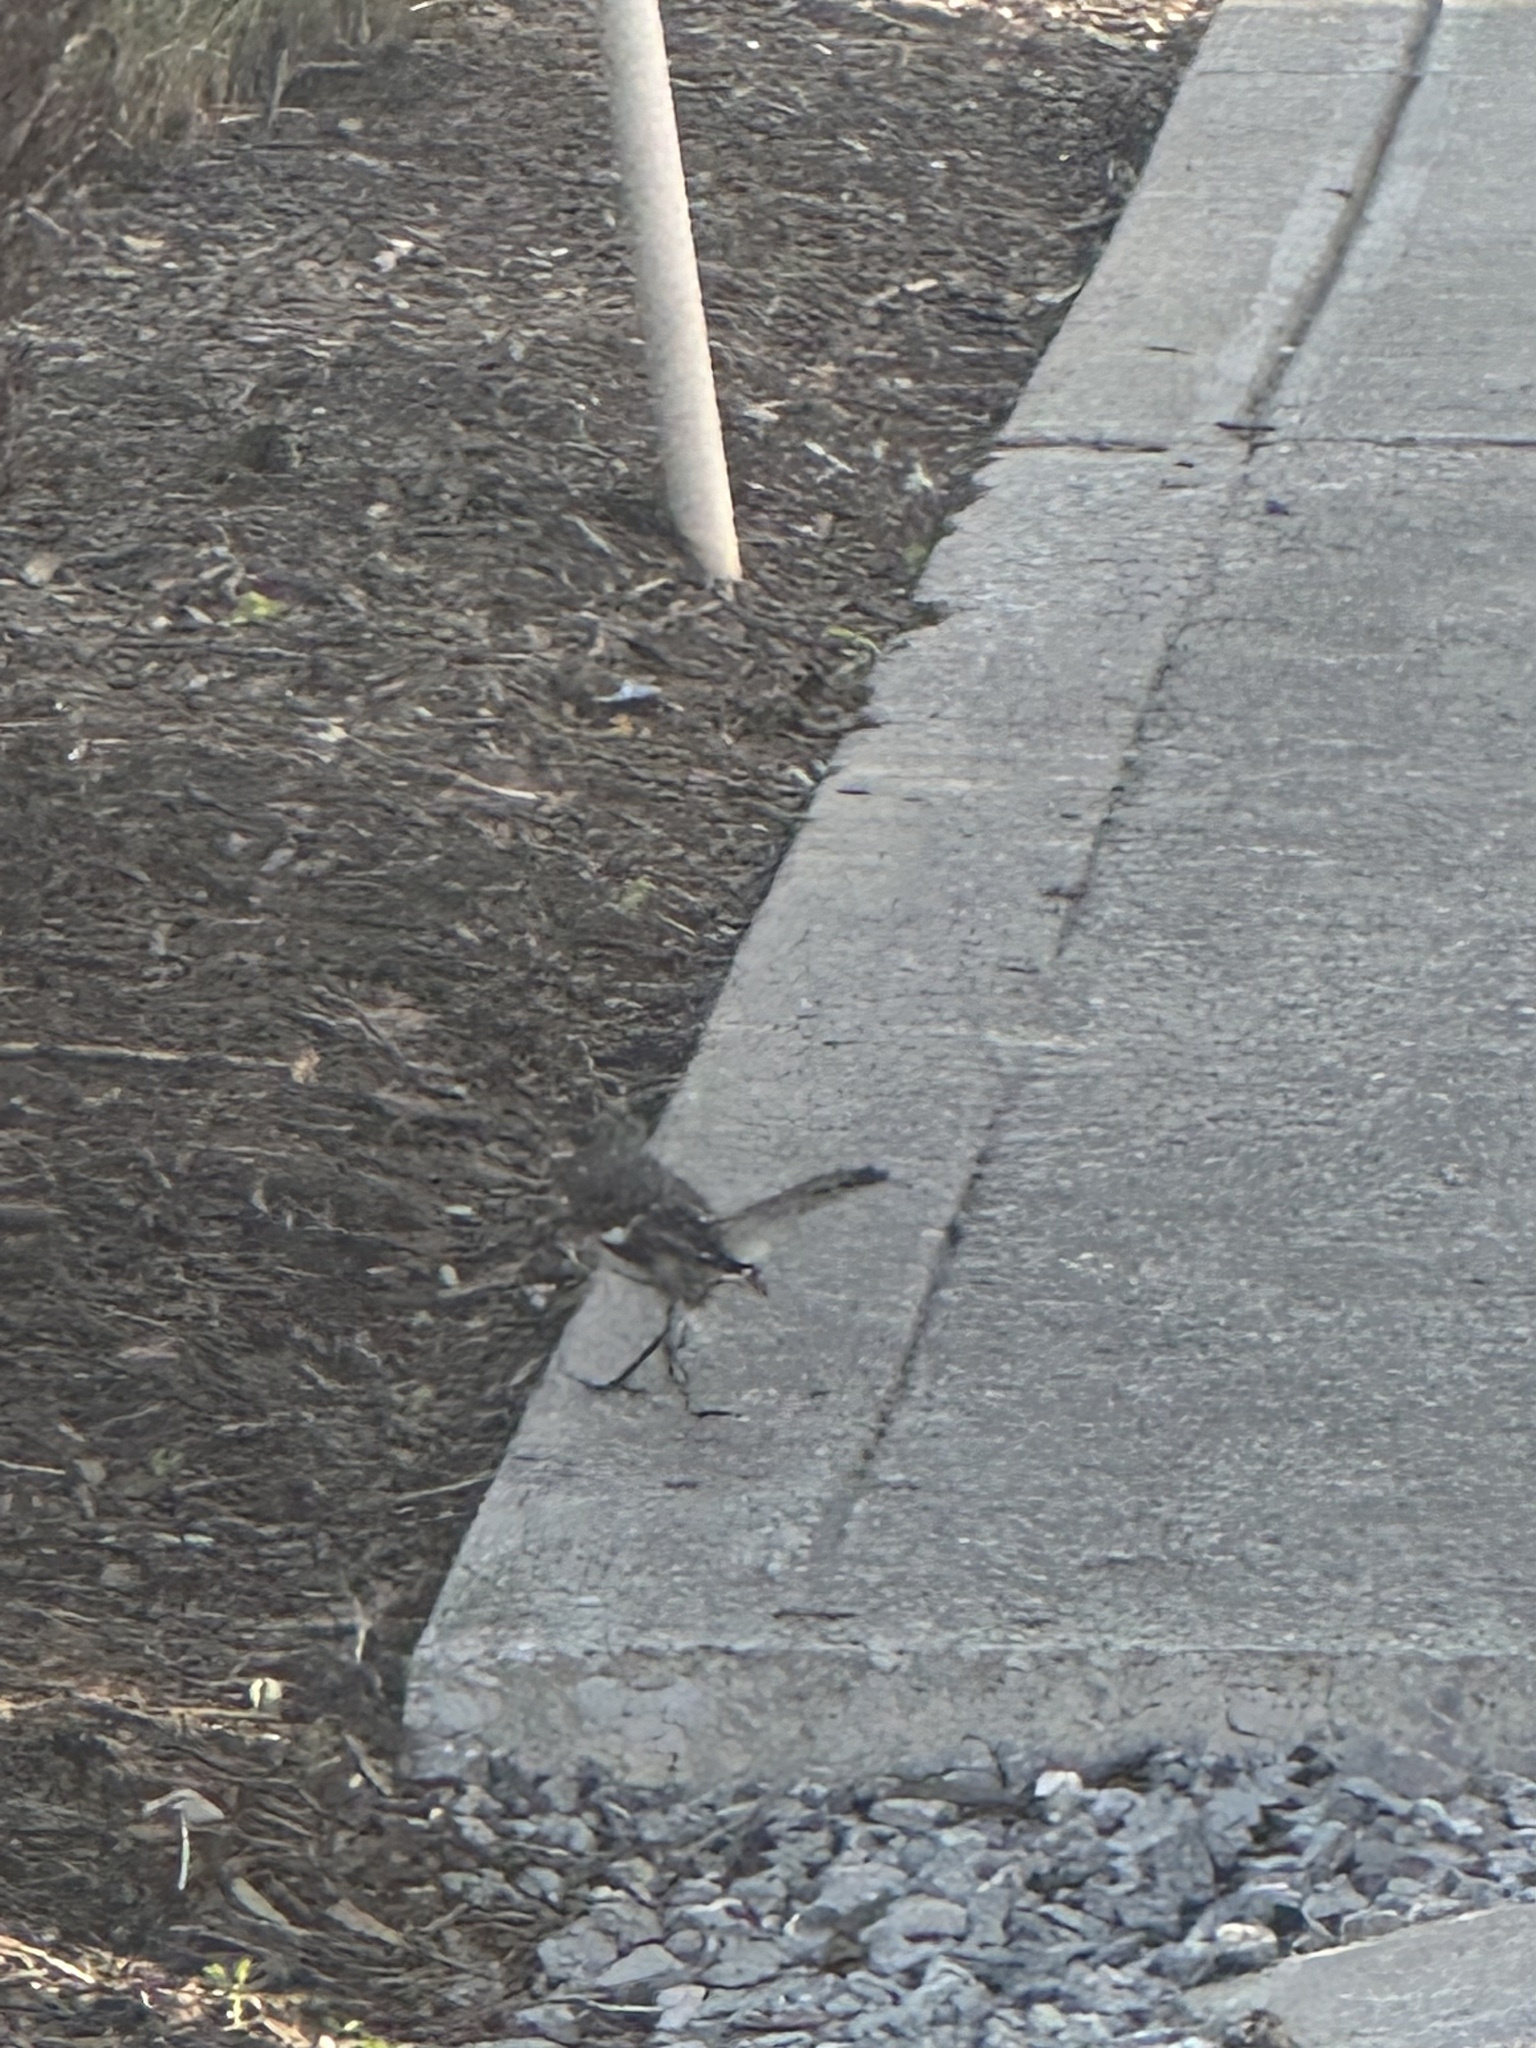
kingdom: Animalia
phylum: Chordata
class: Aves
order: Passeriformes
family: Mimidae
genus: Mimus
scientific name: Mimus polyglottos
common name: Northern mockingbird
